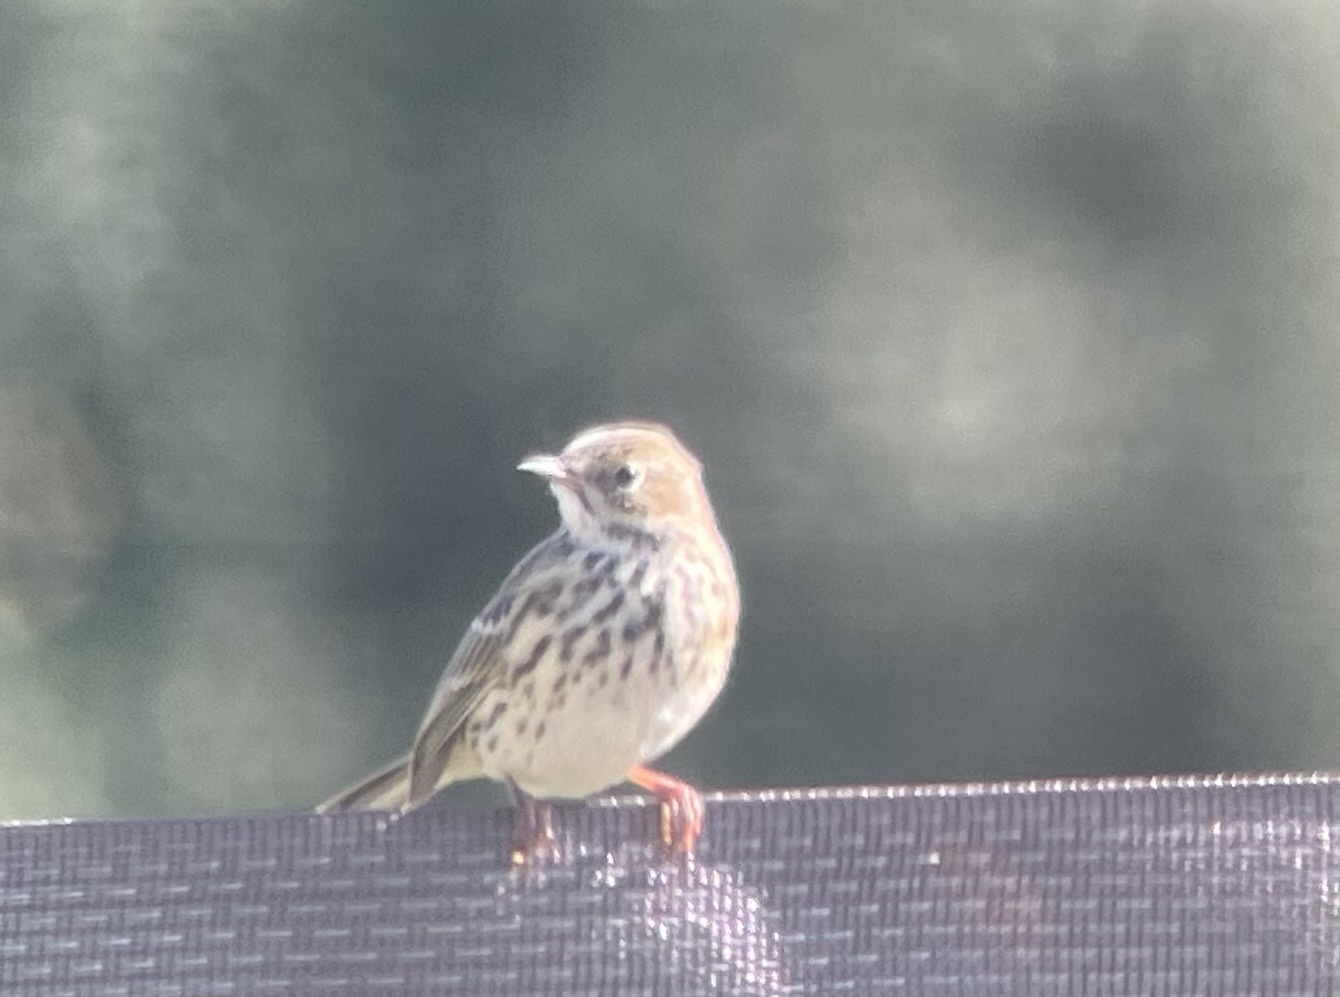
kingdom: Animalia
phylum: Chordata
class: Aves
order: Passeriformes
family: Motacillidae
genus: Anthus
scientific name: Anthus pratensis
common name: Meadow pipit
